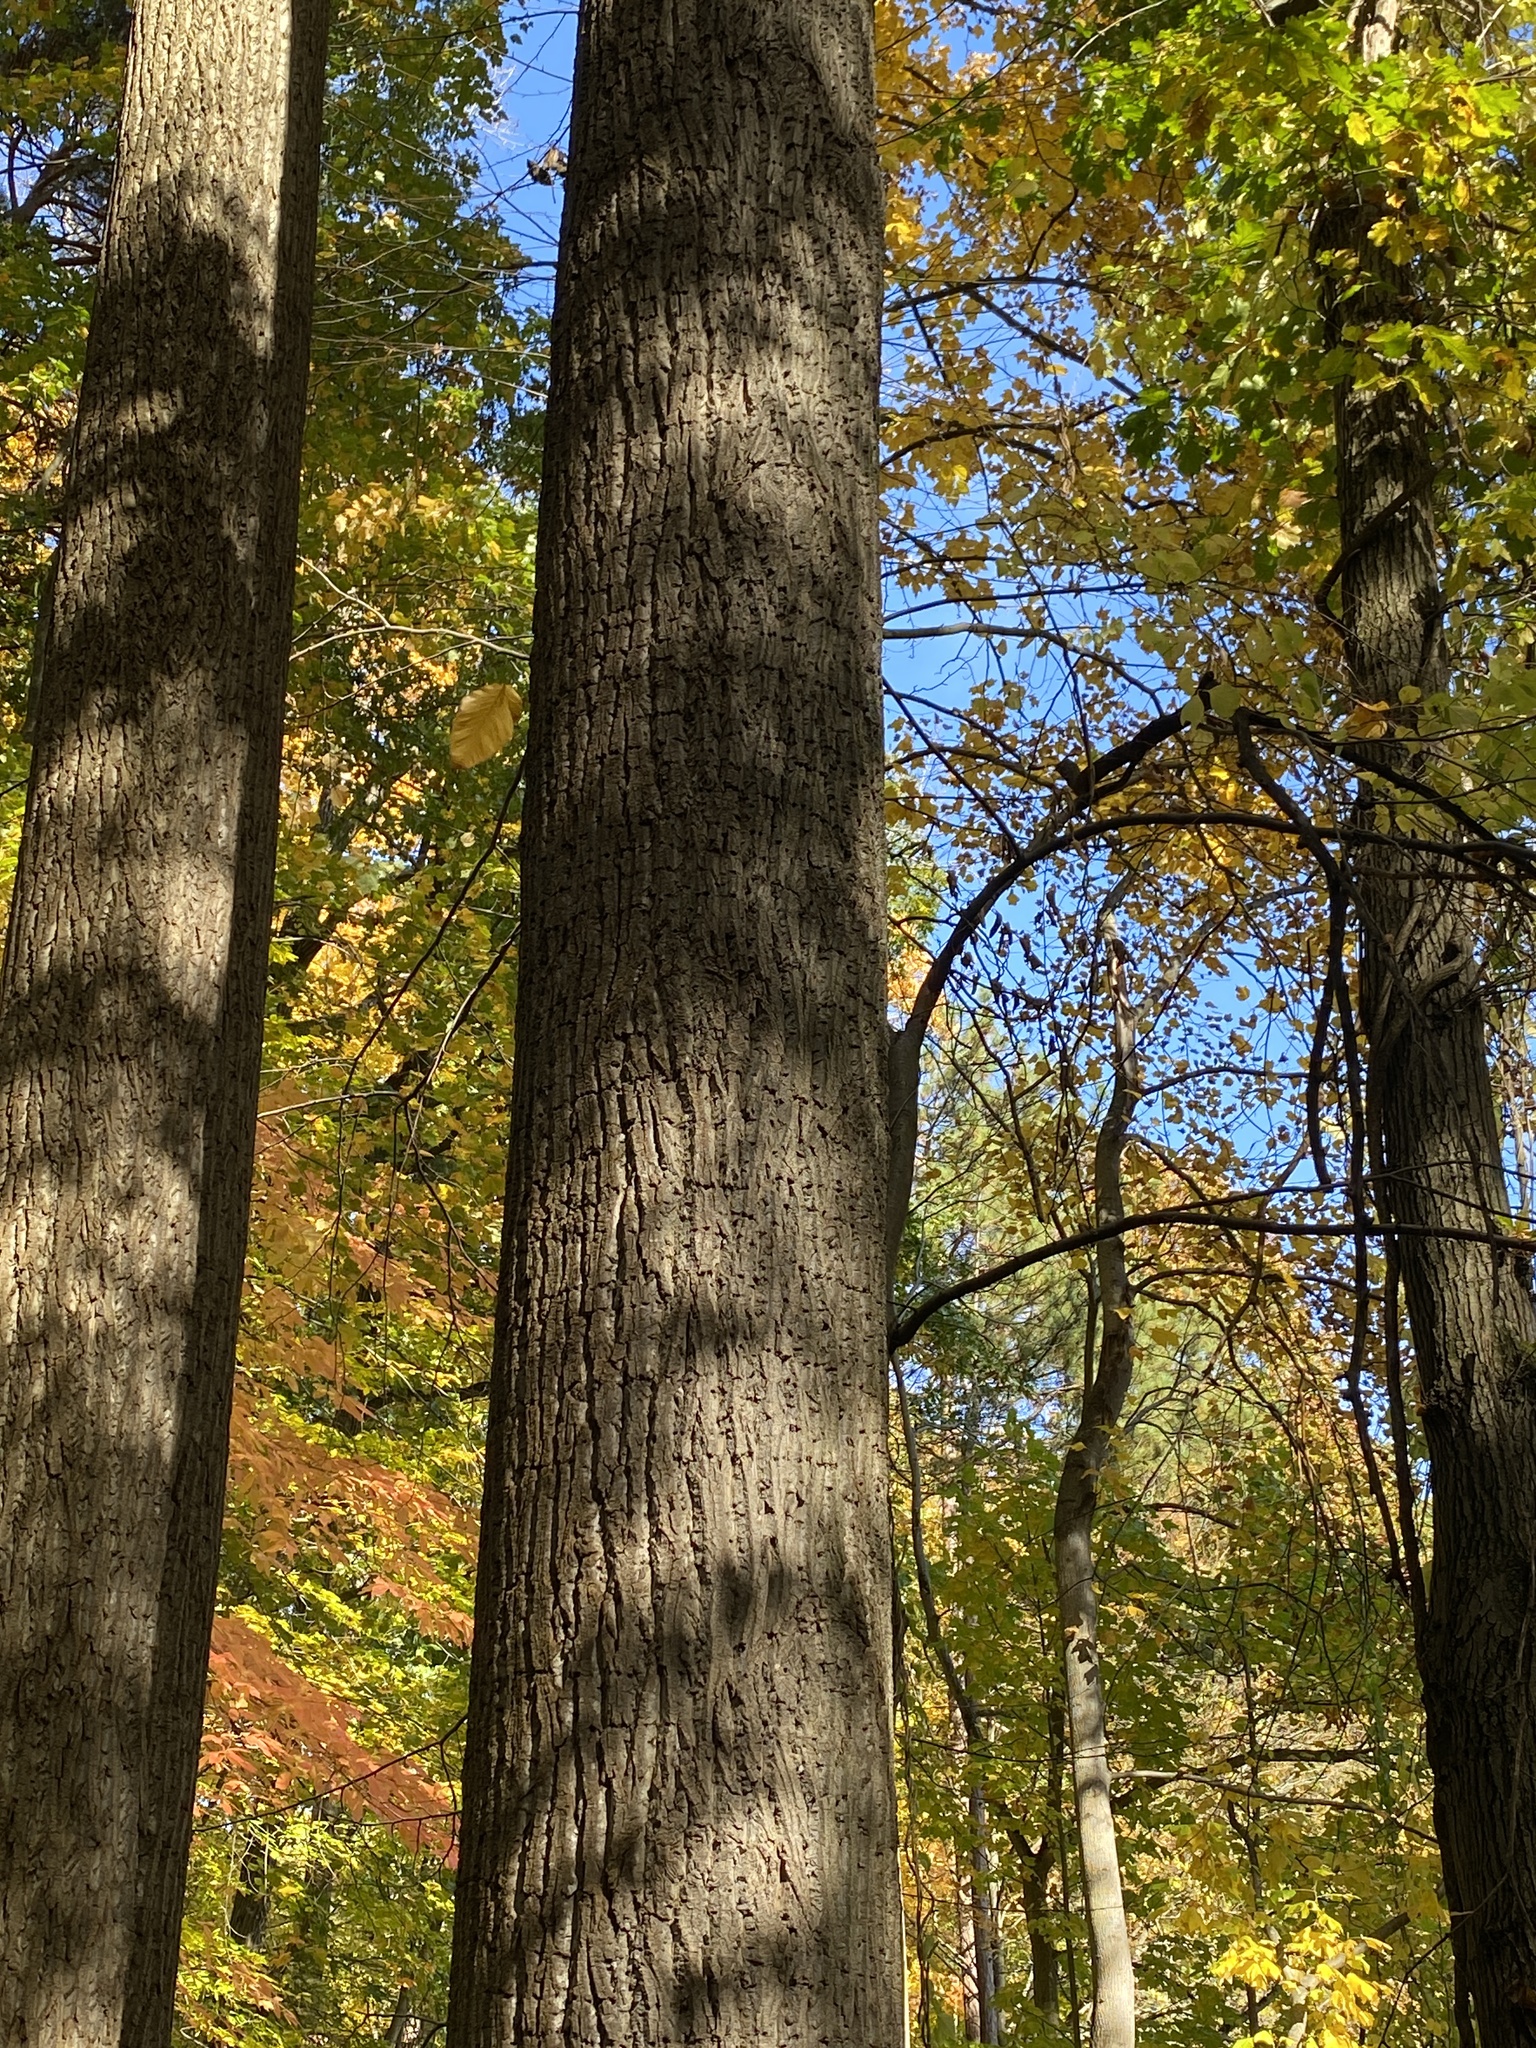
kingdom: Plantae
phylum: Tracheophyta
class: Magnoliopsida
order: Magnoliales
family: Magnoliaceae
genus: Liriodendron
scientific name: Liriodendron tulipifera
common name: Tulip tree
